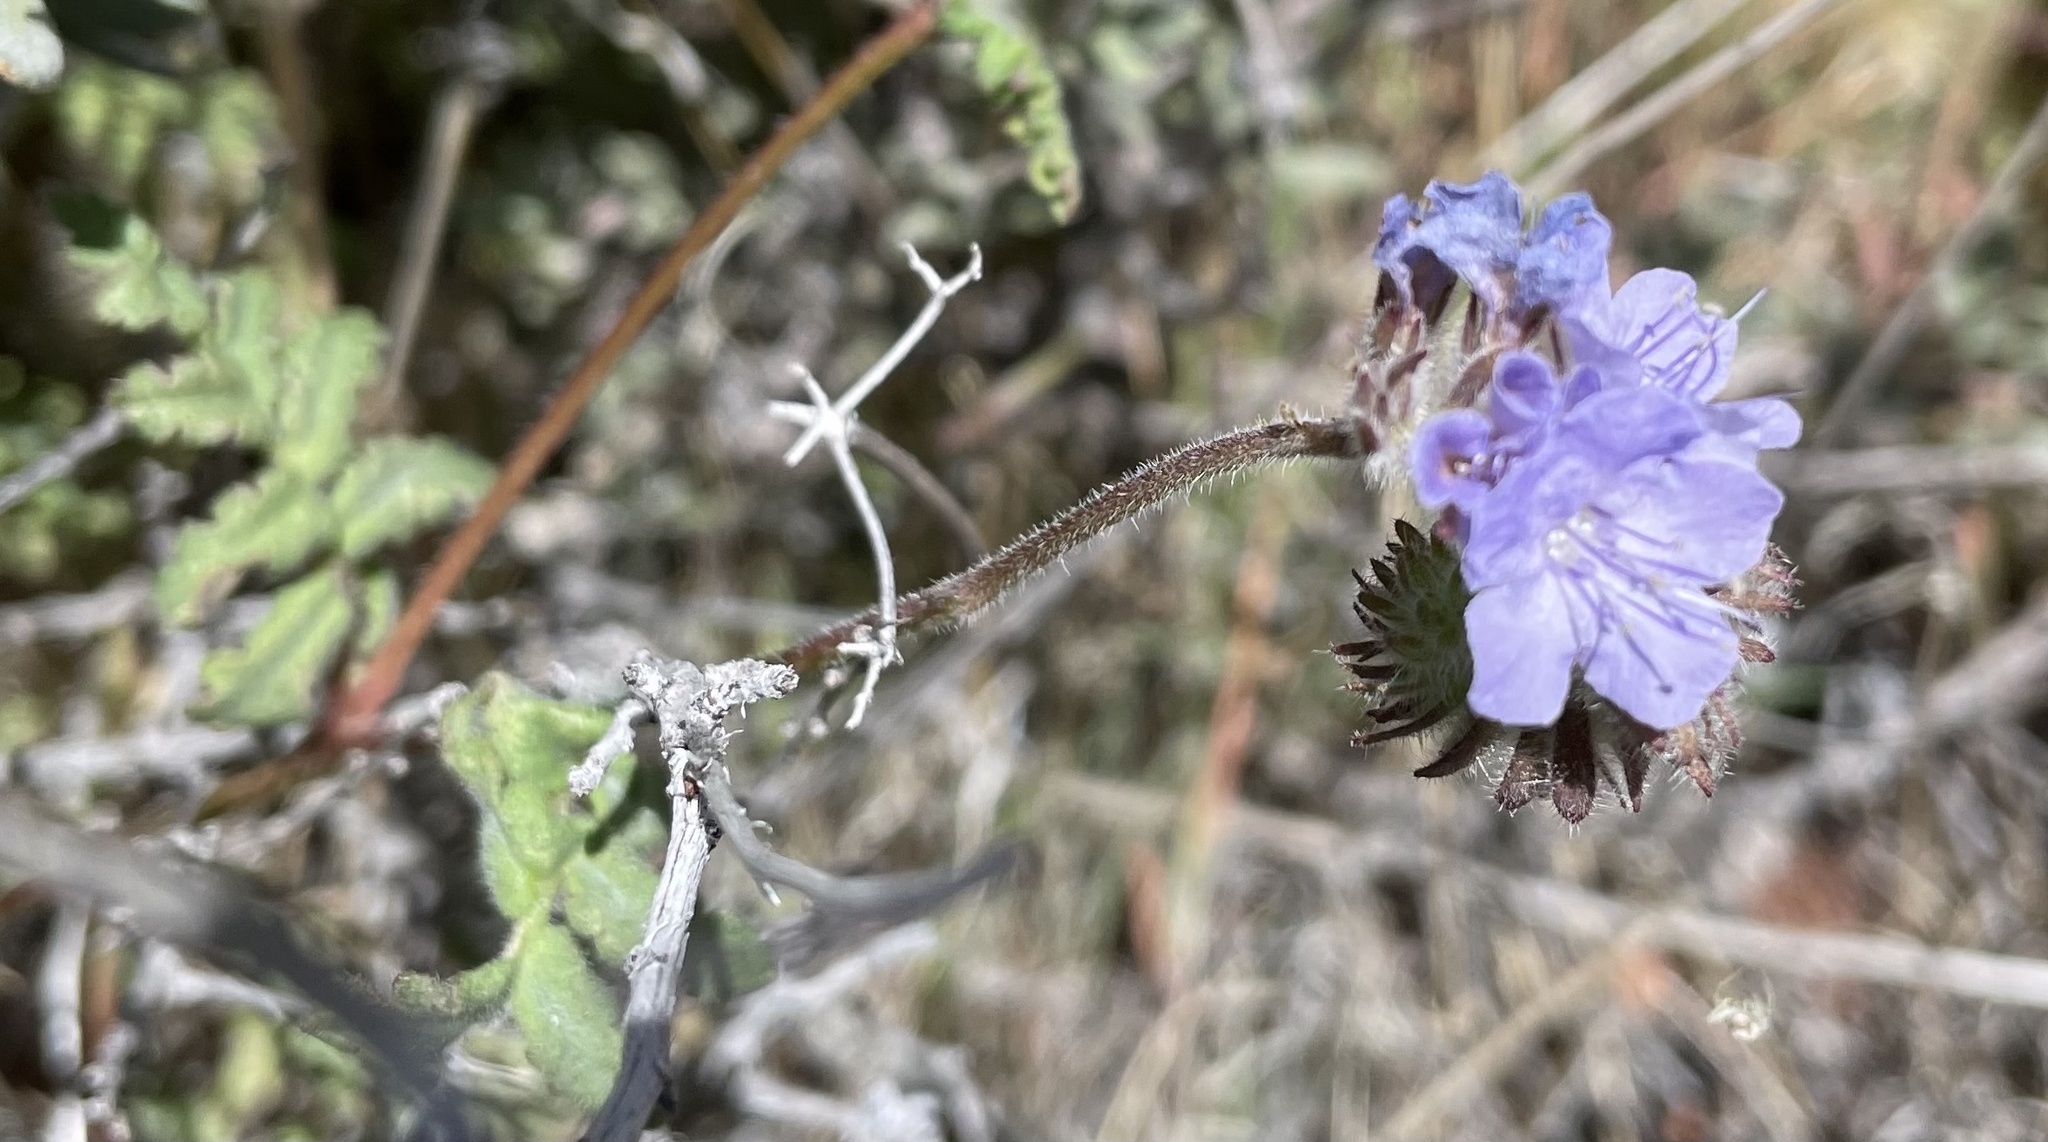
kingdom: Plantae
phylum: Tracheophyta
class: Magnoliopsida
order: Boraginales
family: Hydrophyllaceae
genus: Phacelia
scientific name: Phacelia distans
